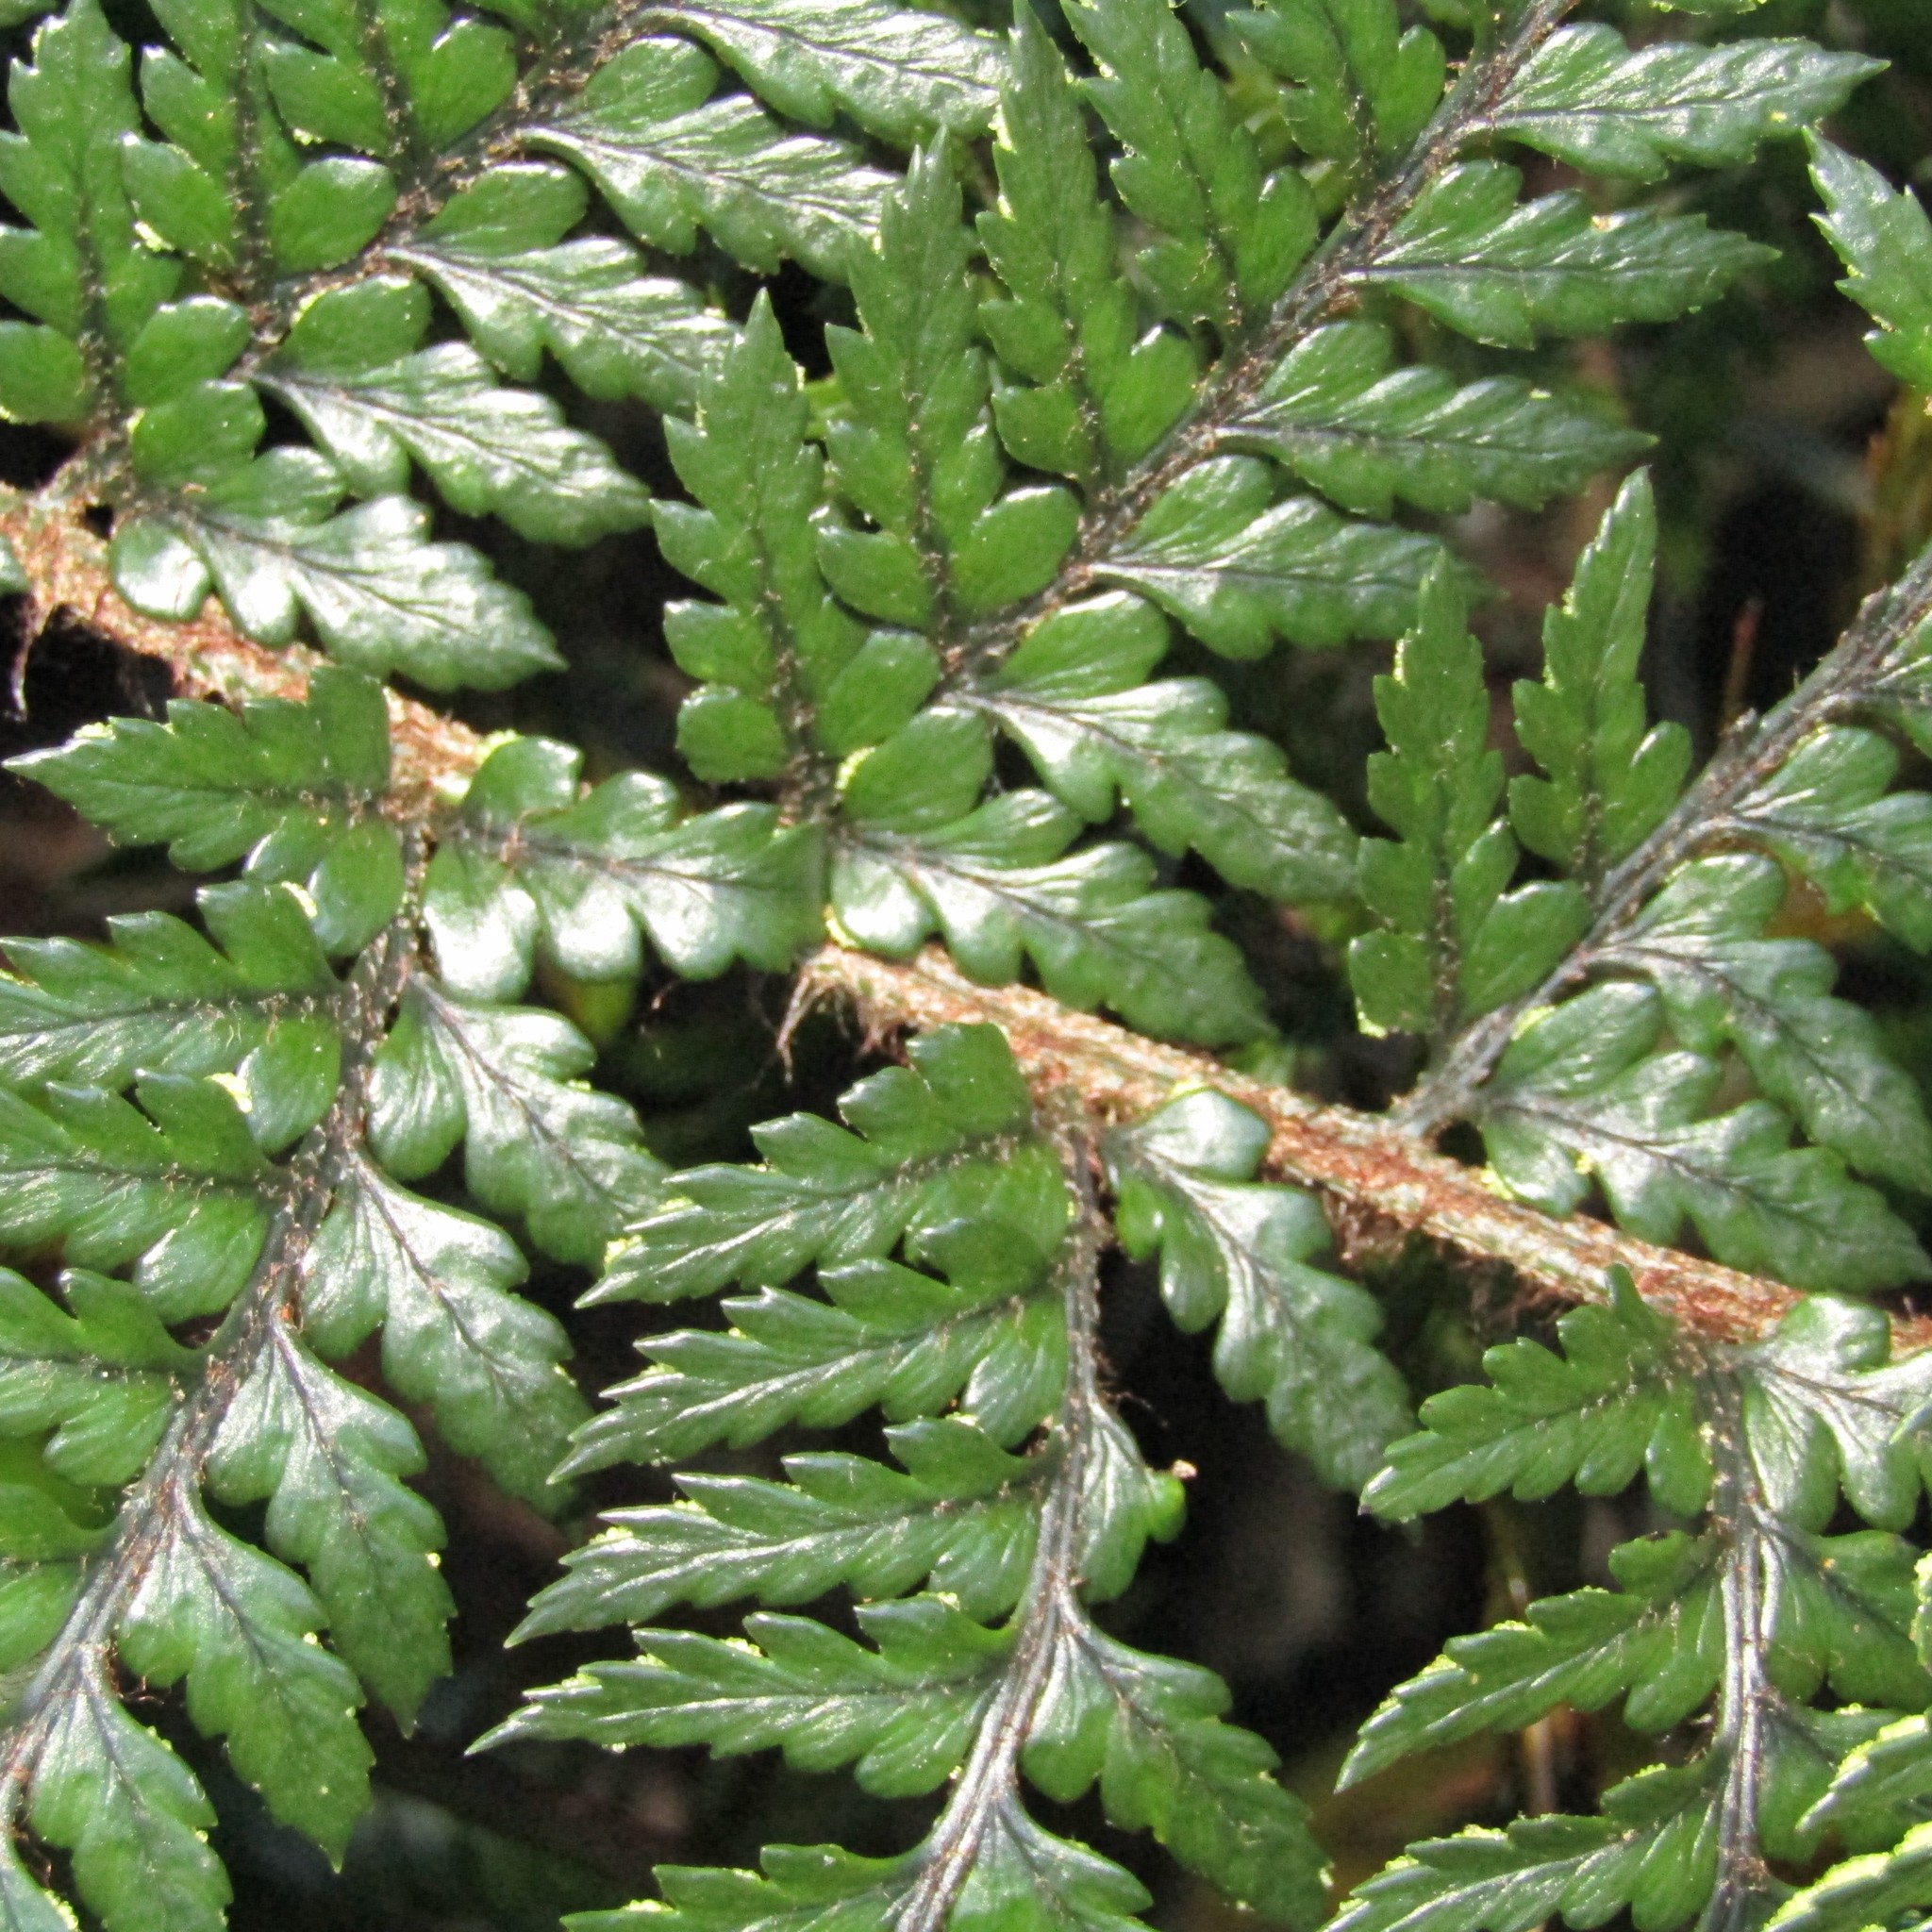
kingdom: Plantae
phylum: Tracheophyta
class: Polypodiopsida
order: Polypodiales
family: Dryopteridaceae
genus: Polystichum
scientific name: Polystichum neozelandicum
